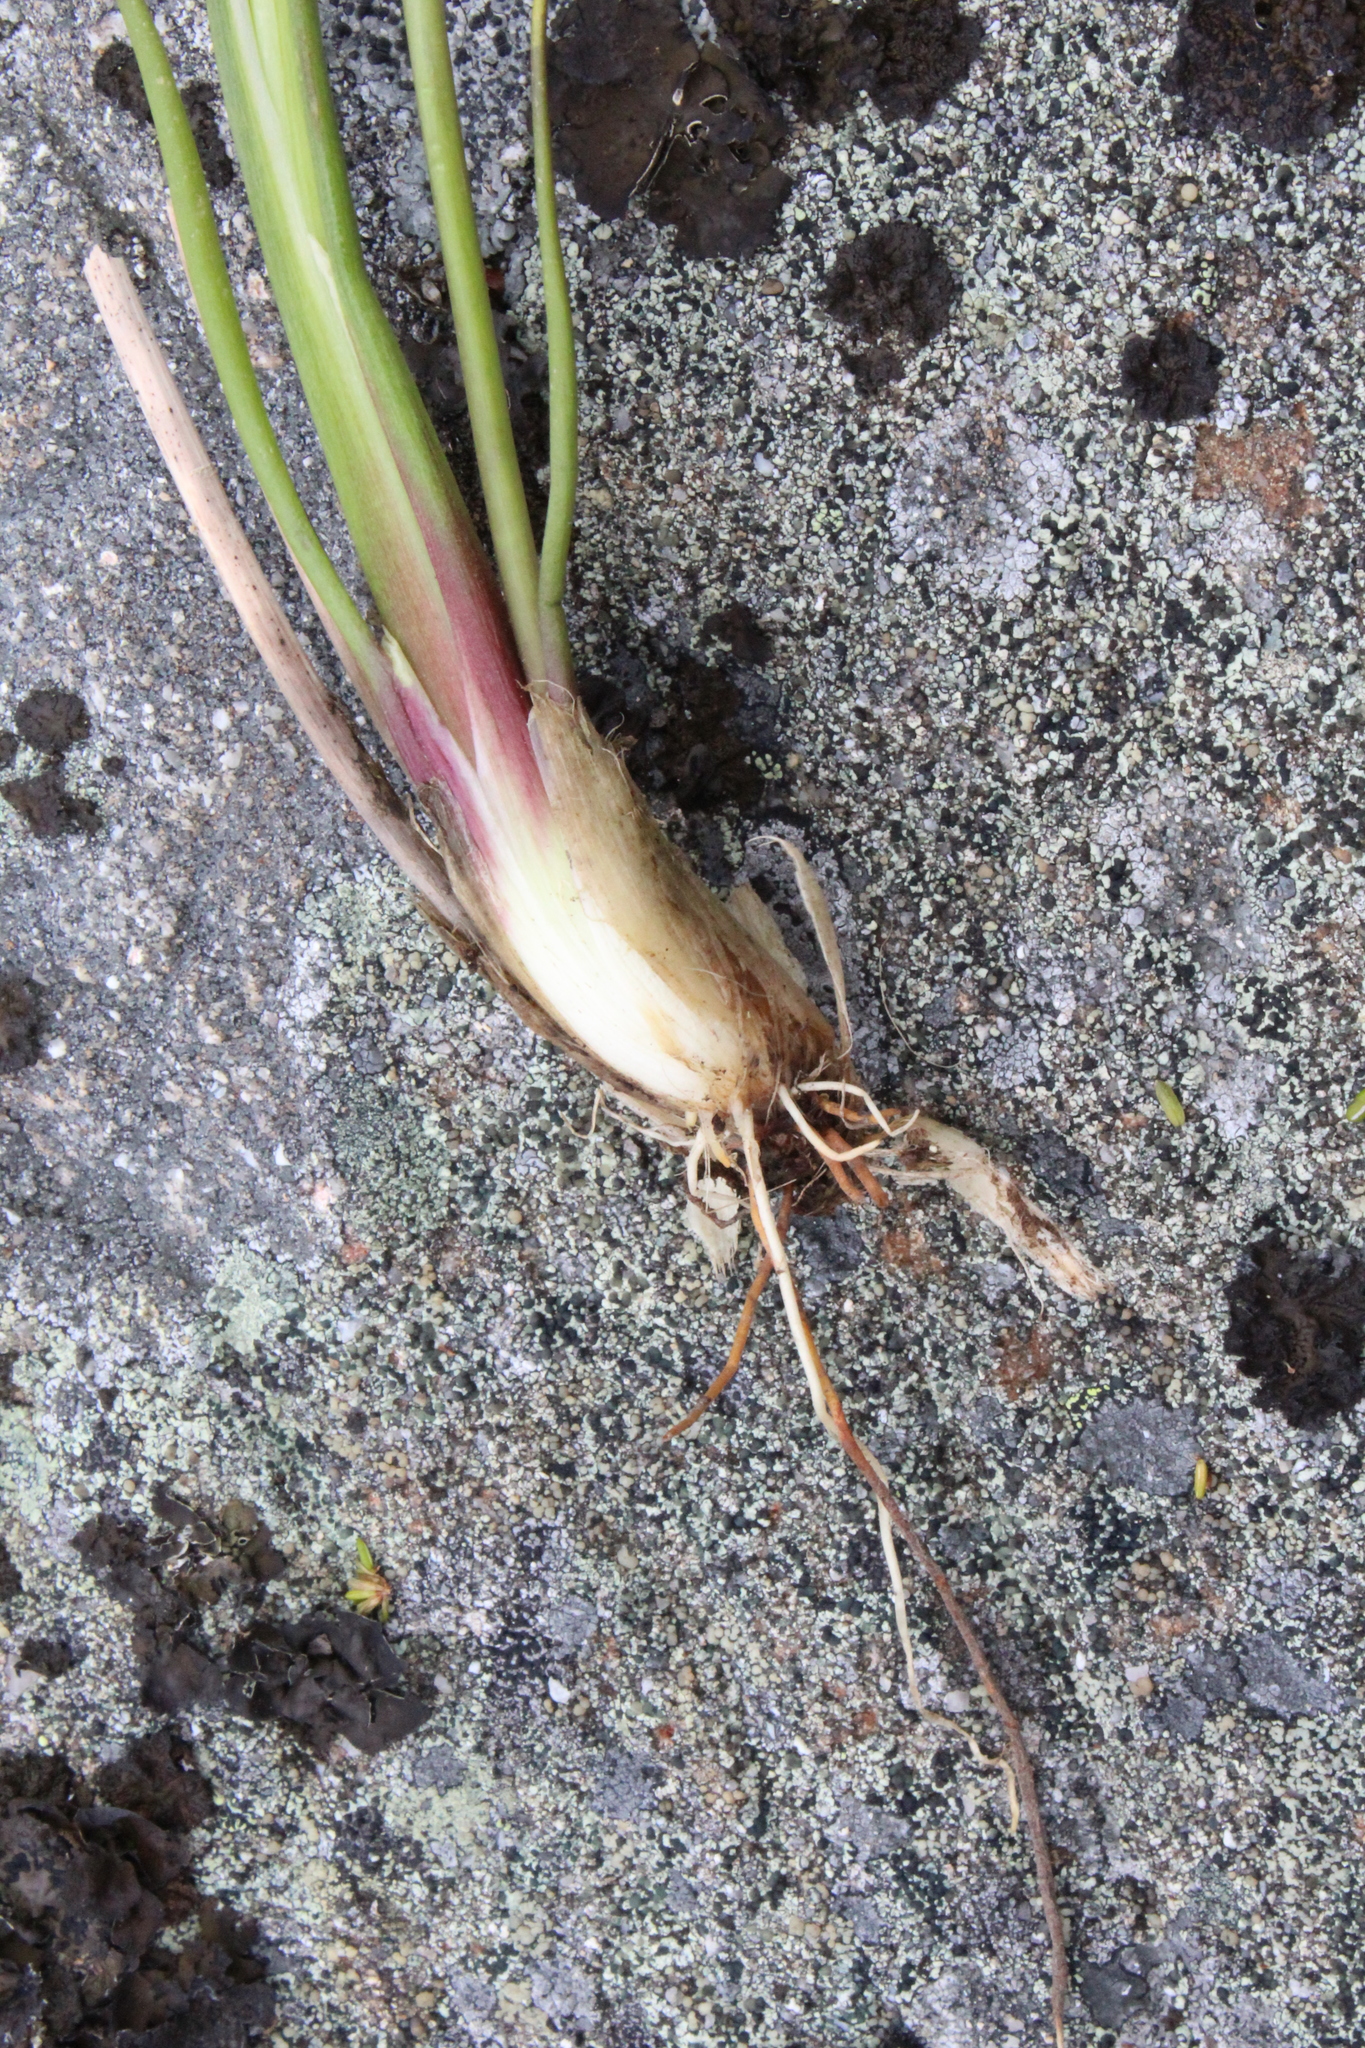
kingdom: Plantae
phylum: Tracheophyta
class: Liliopsida
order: Alismatales
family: Juncaginaceae
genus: Triglochin
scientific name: Triglochin palustris
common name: Marsh arrowgrass
